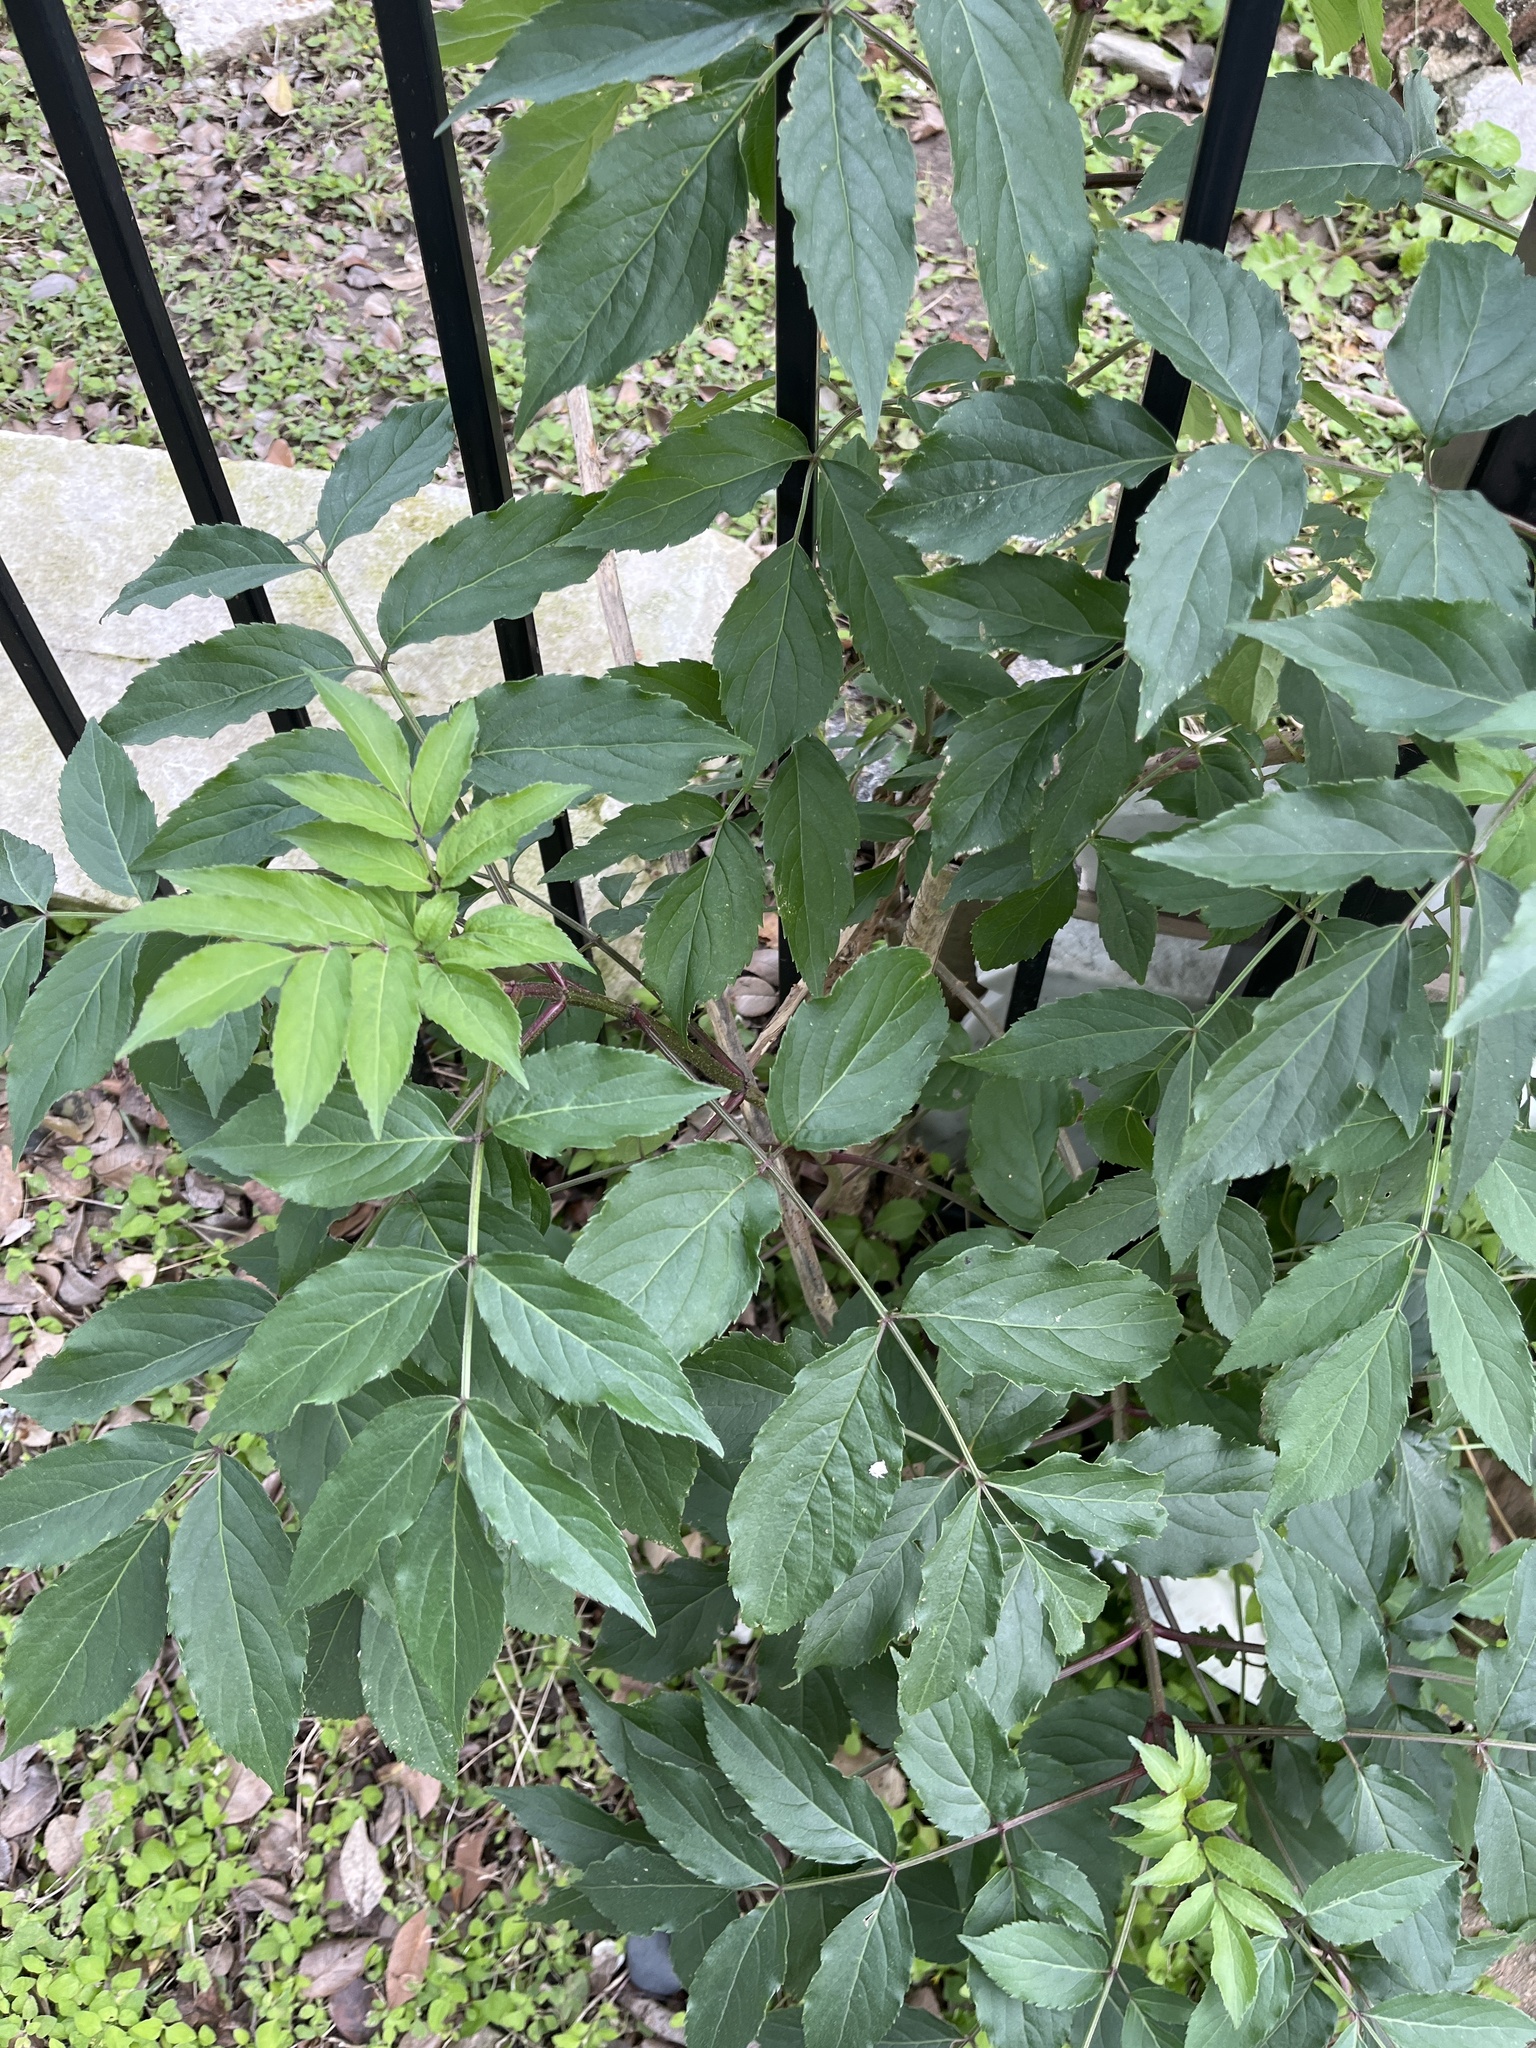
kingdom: Plantae
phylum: Tracheophyta
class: Magnoliopsida
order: Dipsacales
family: Viburnaceae
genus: Sambucus
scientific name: Sambucus canadensis
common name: American elder
